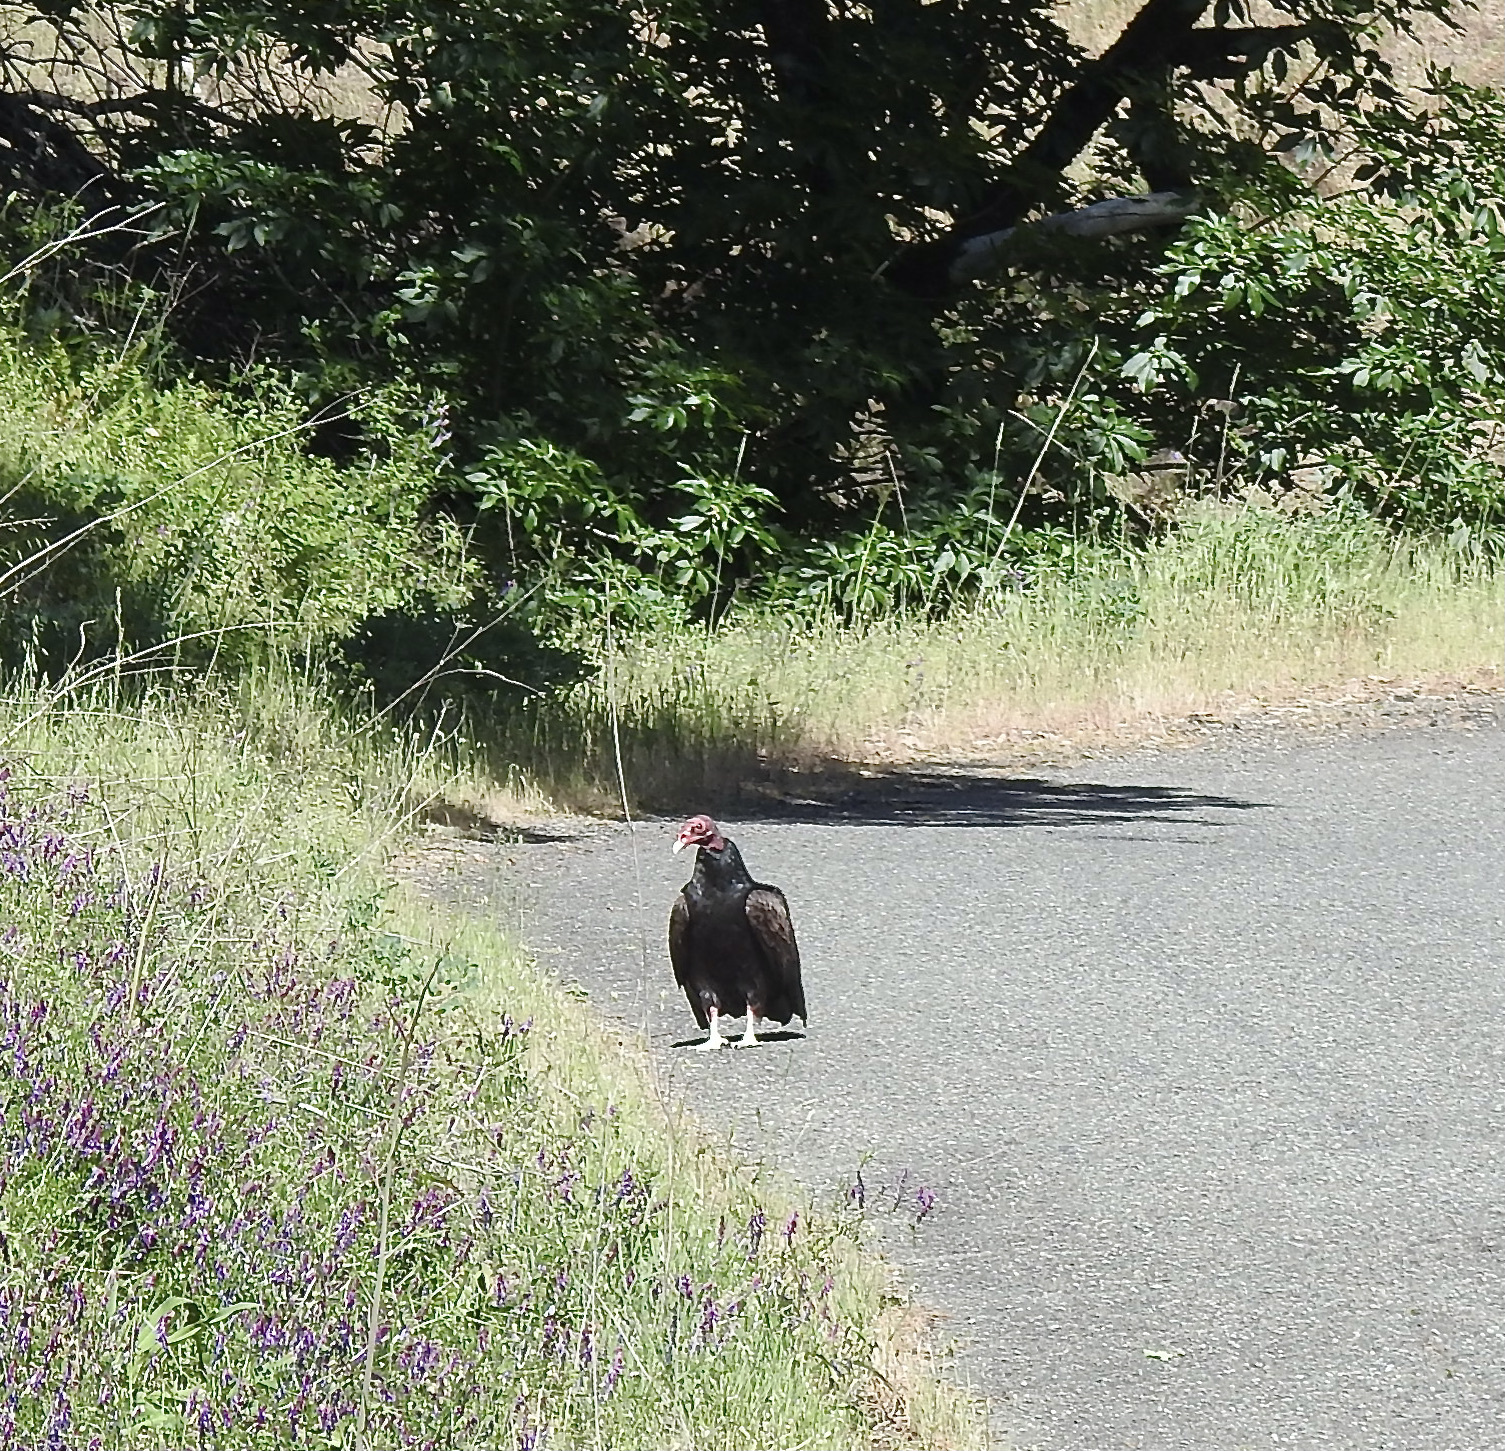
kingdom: Animalia
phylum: Chordata
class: Aves
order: Accipitriformes
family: Cathartidae
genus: Cathartes
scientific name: Cathartes aura
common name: Turkey vulture
